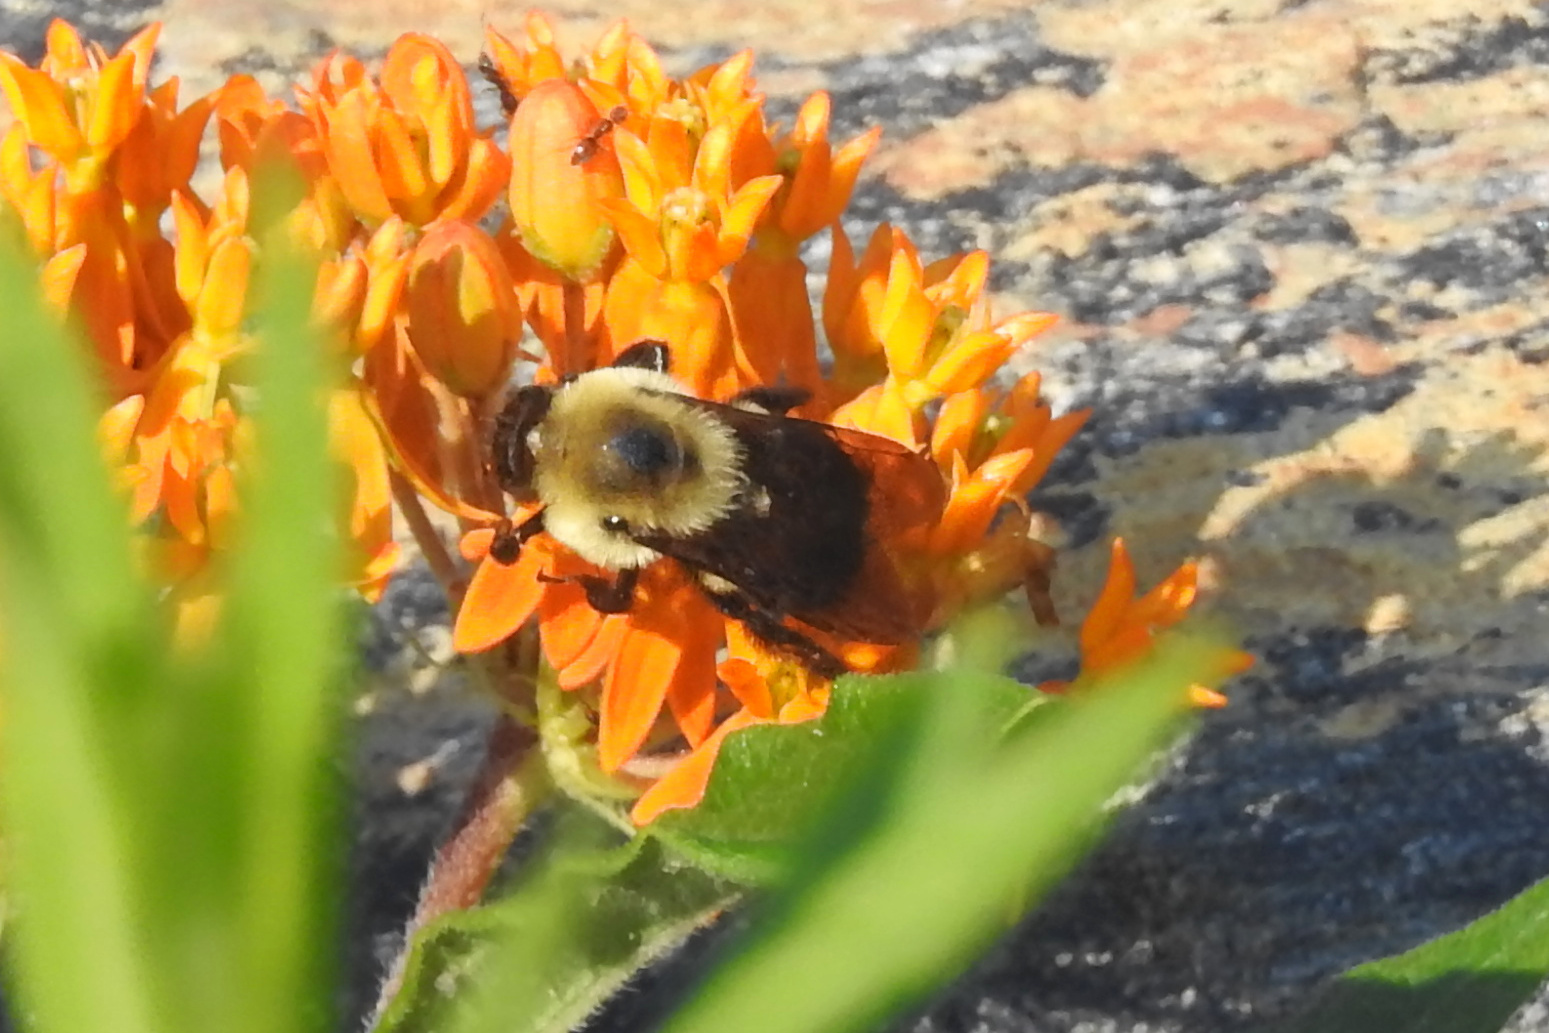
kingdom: Animalia
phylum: Arthropoda
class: Insecta
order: Hymenoptera
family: Apidae
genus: Bombus
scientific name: Bombus griseocollis
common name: Brown-belted bumble bee
